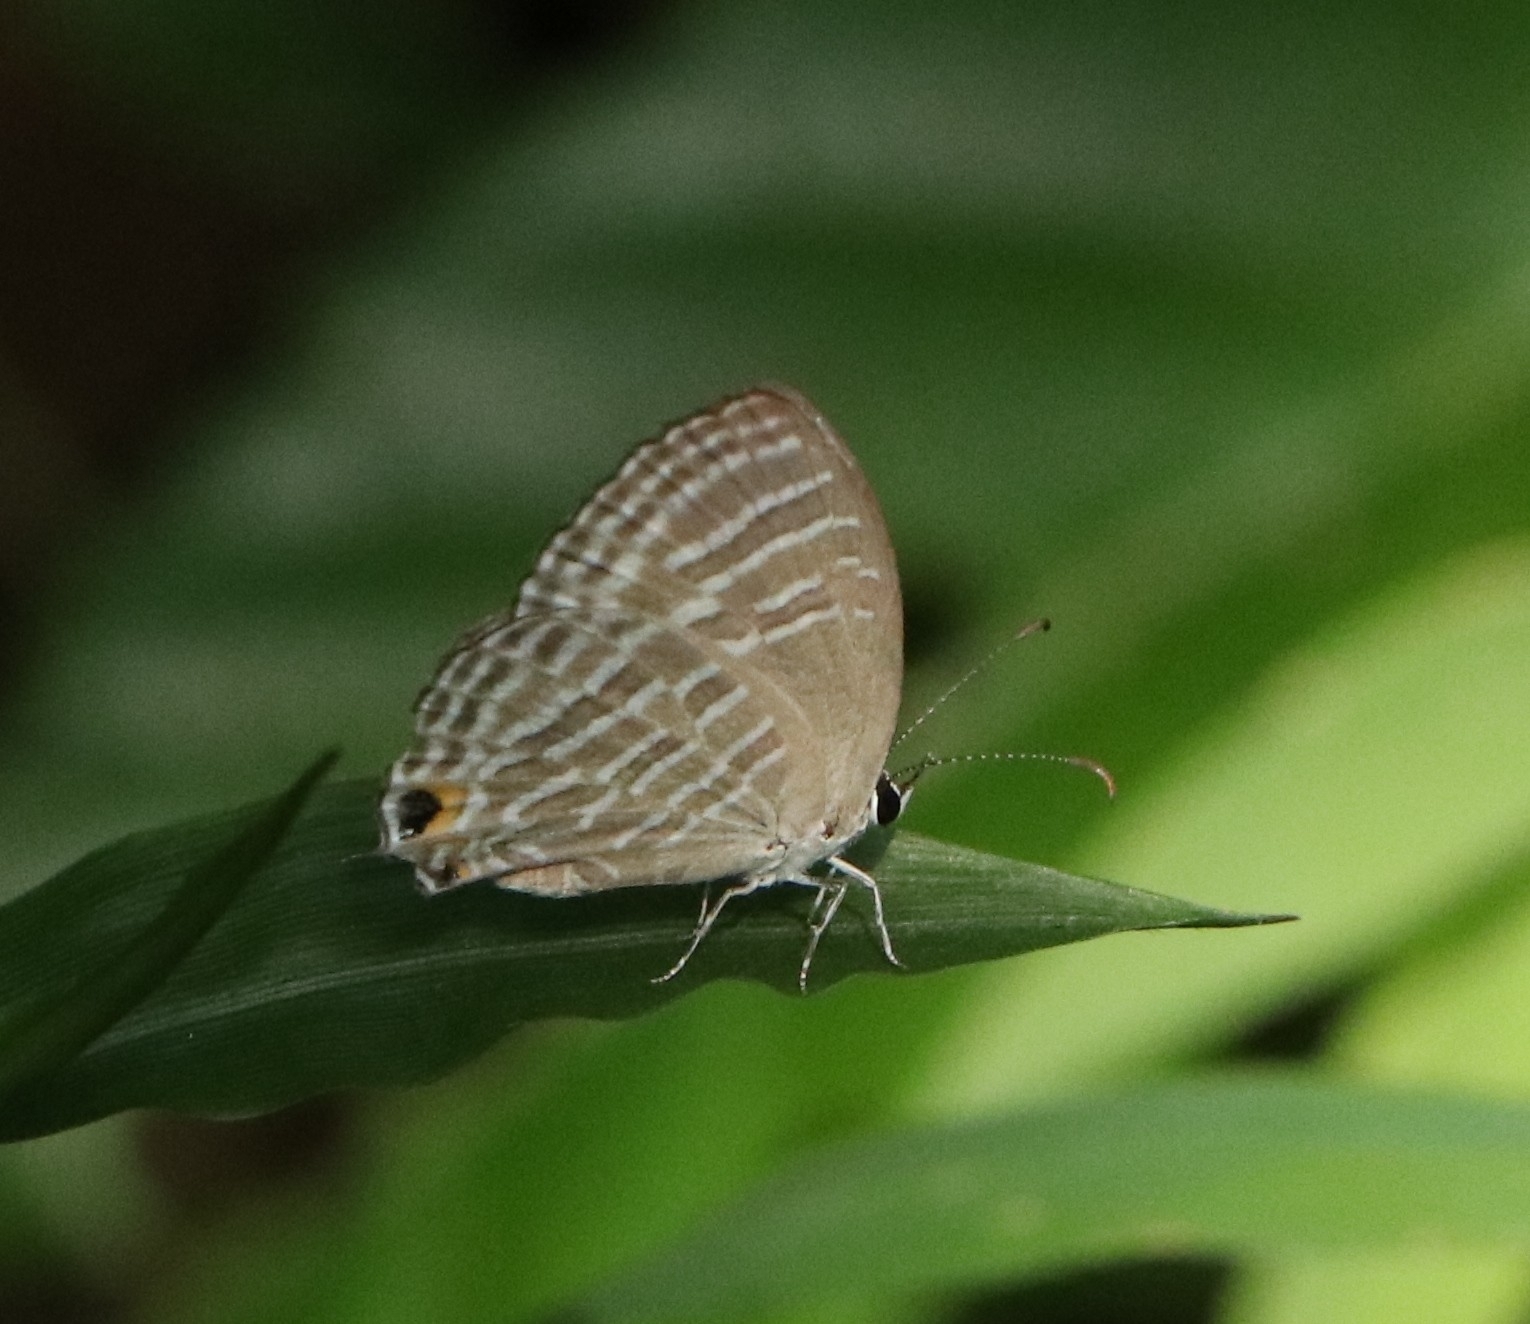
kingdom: Animalia
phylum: Arthropoda
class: Insecta
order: Lepidoptera
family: Lycaenidae
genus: Jamides
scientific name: Jamides celeno
